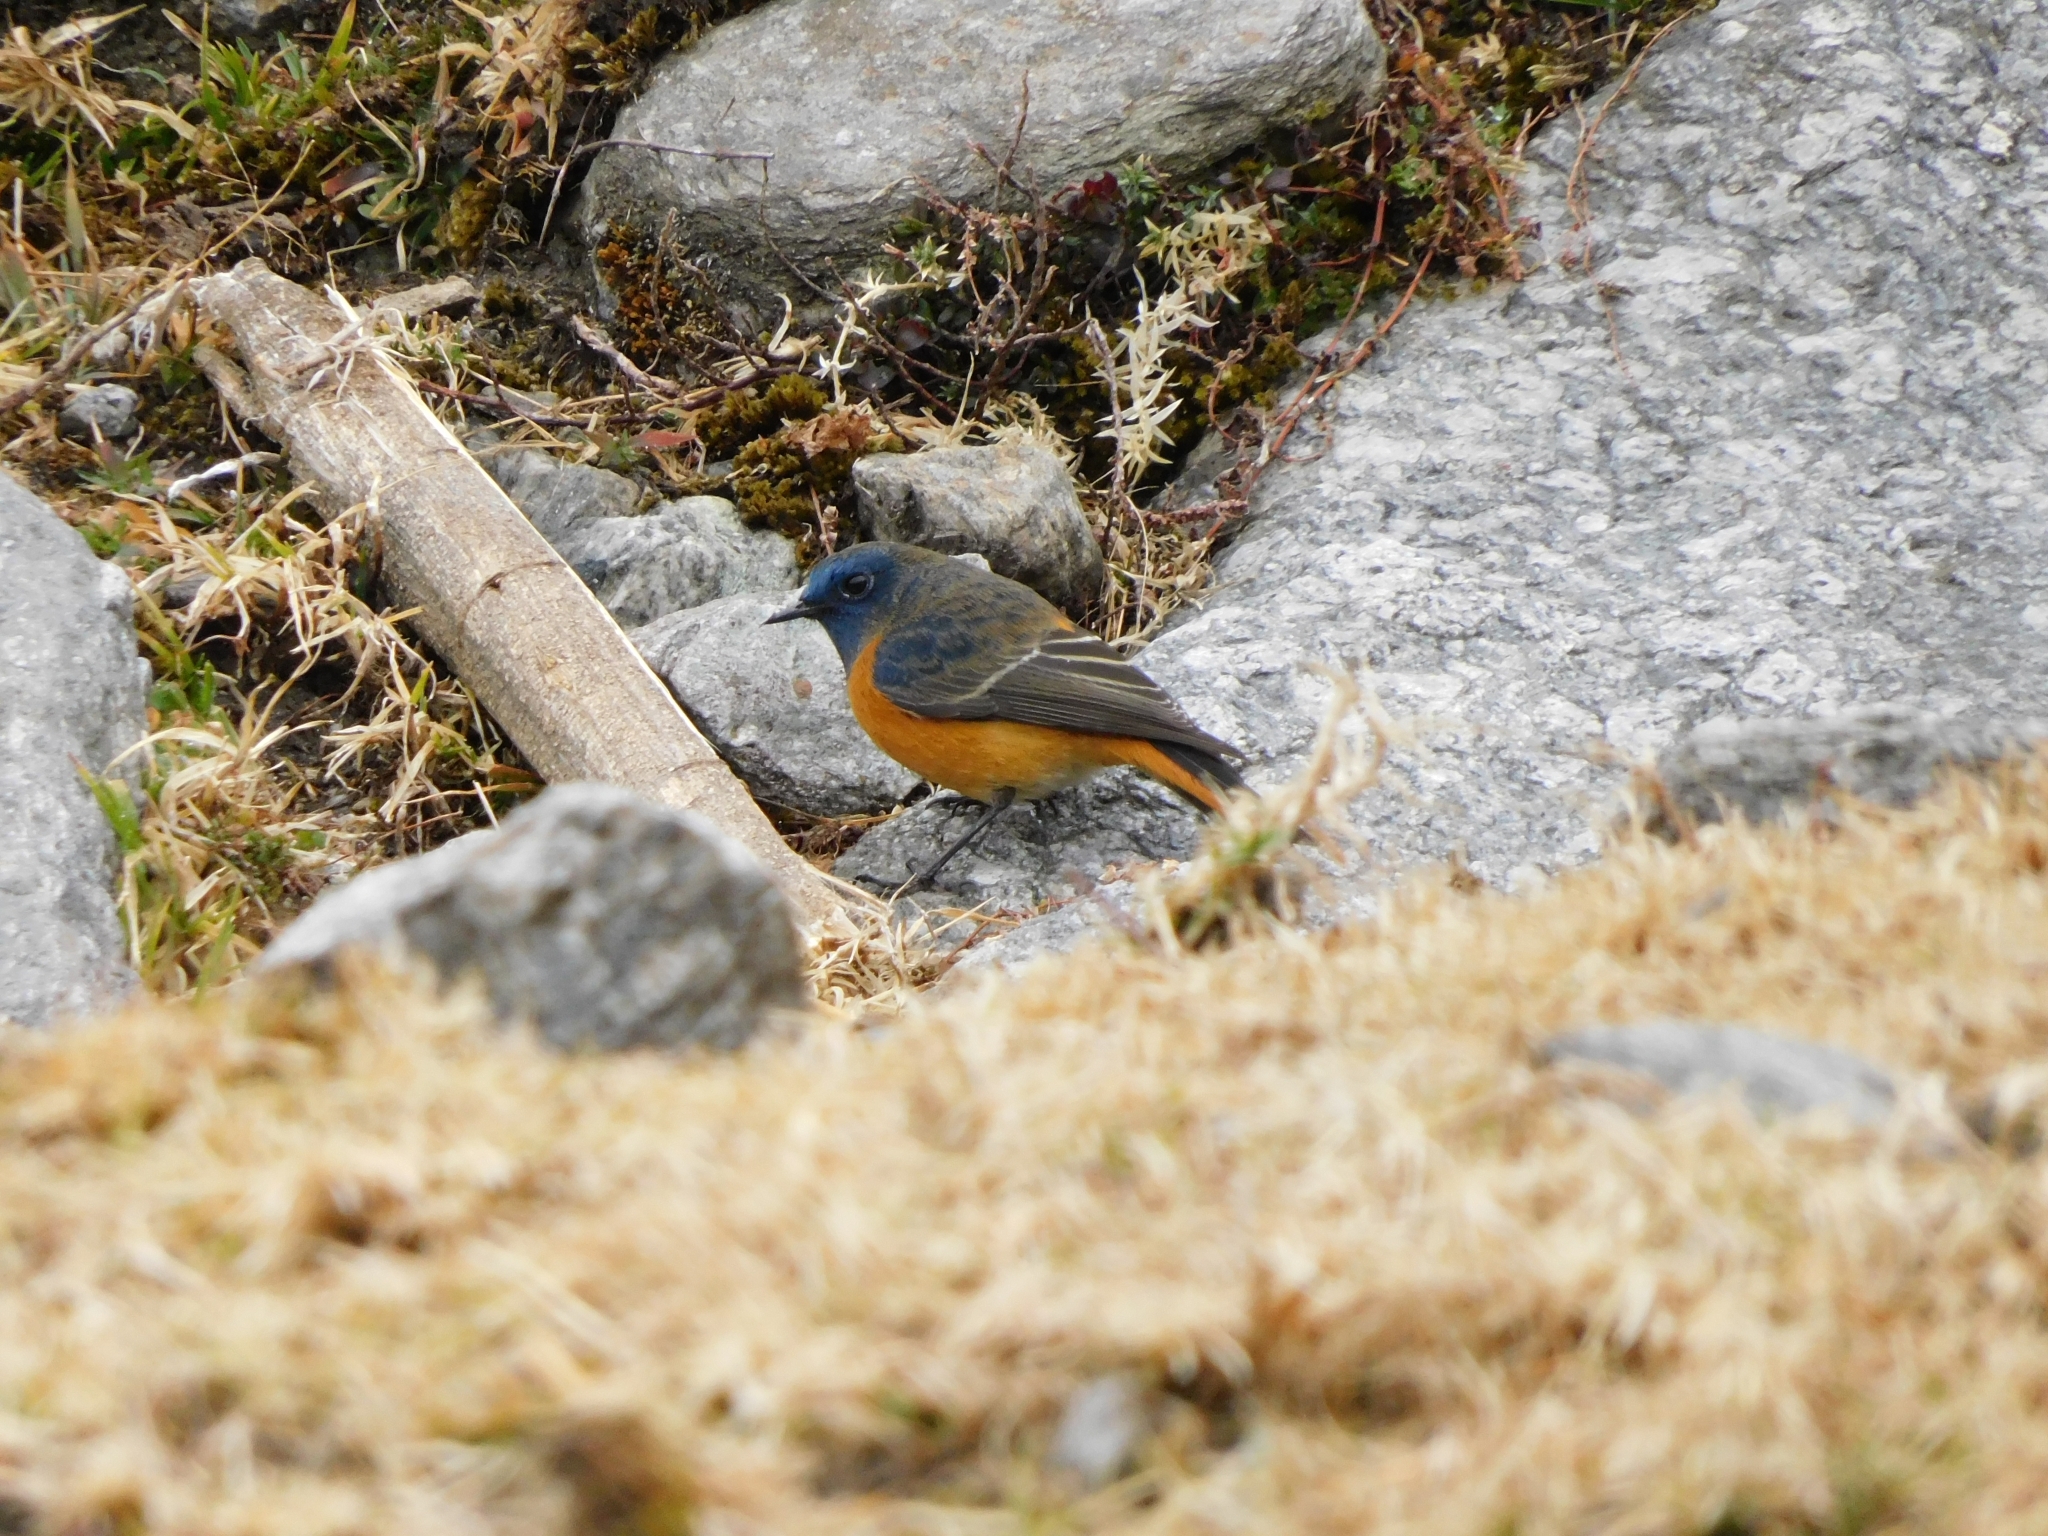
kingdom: Animalia
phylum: Chordata
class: Aves
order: Passeriformes
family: Muscicapidae
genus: Phoenicurus
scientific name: Phoenicurus frontalis
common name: Blue-fronted redstart
